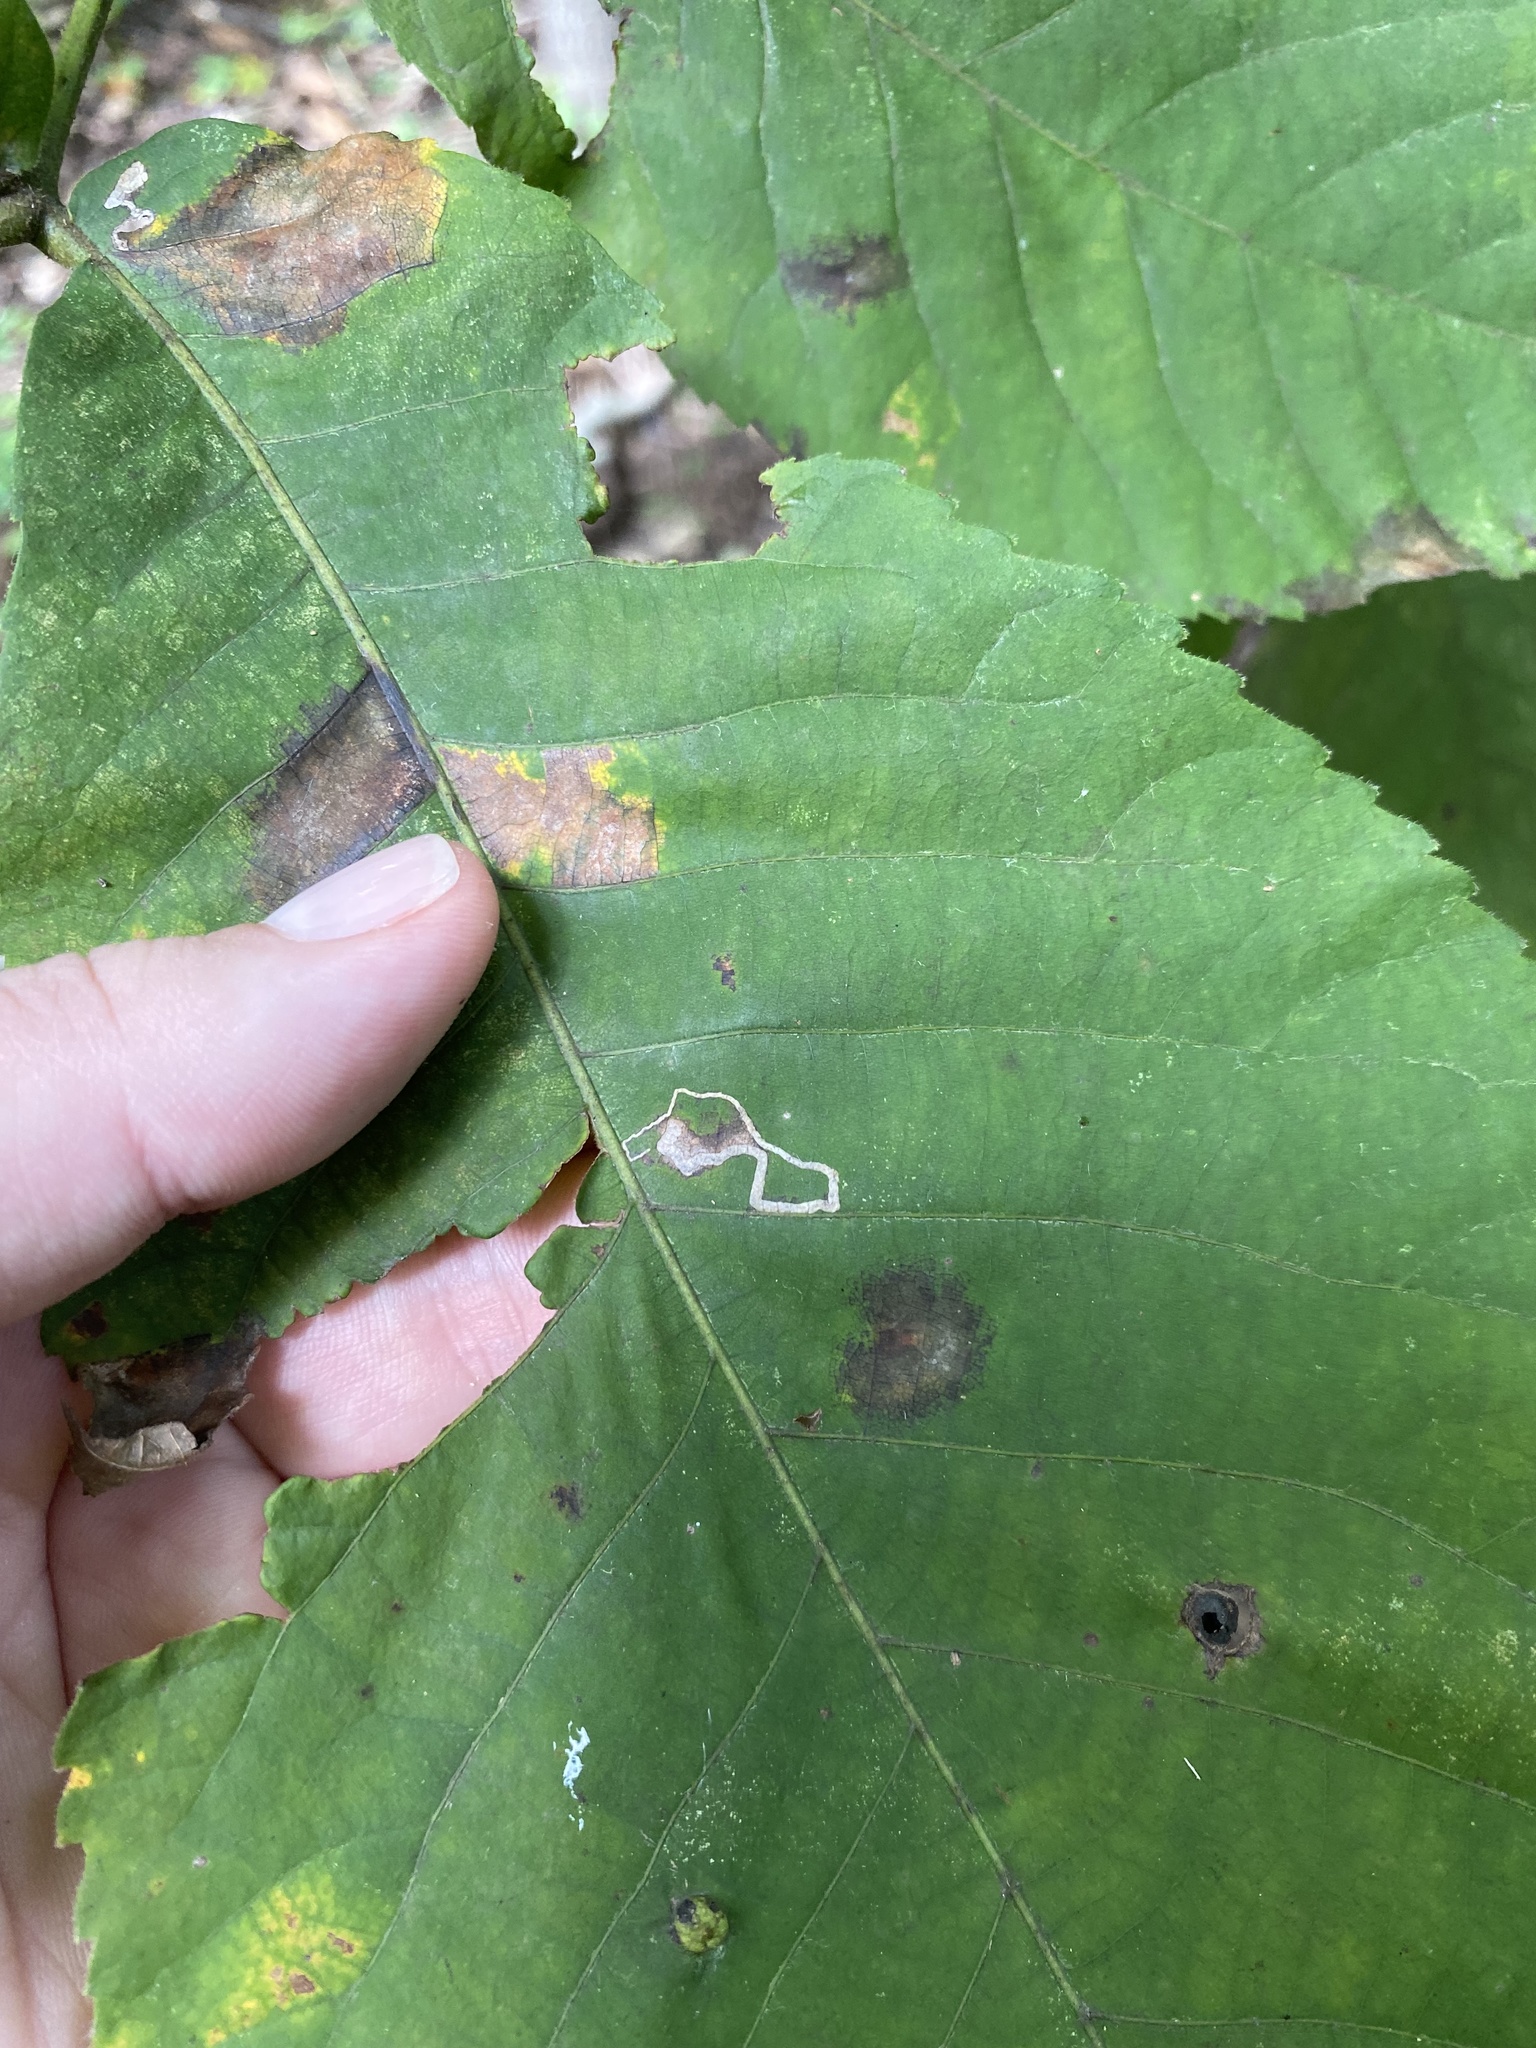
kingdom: Animalia
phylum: Arthropoda
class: Insecta
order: Lepidoptera
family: Nepticulidae
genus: Stigmella
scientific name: Stigmella betulicola
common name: Common birch pigmy
